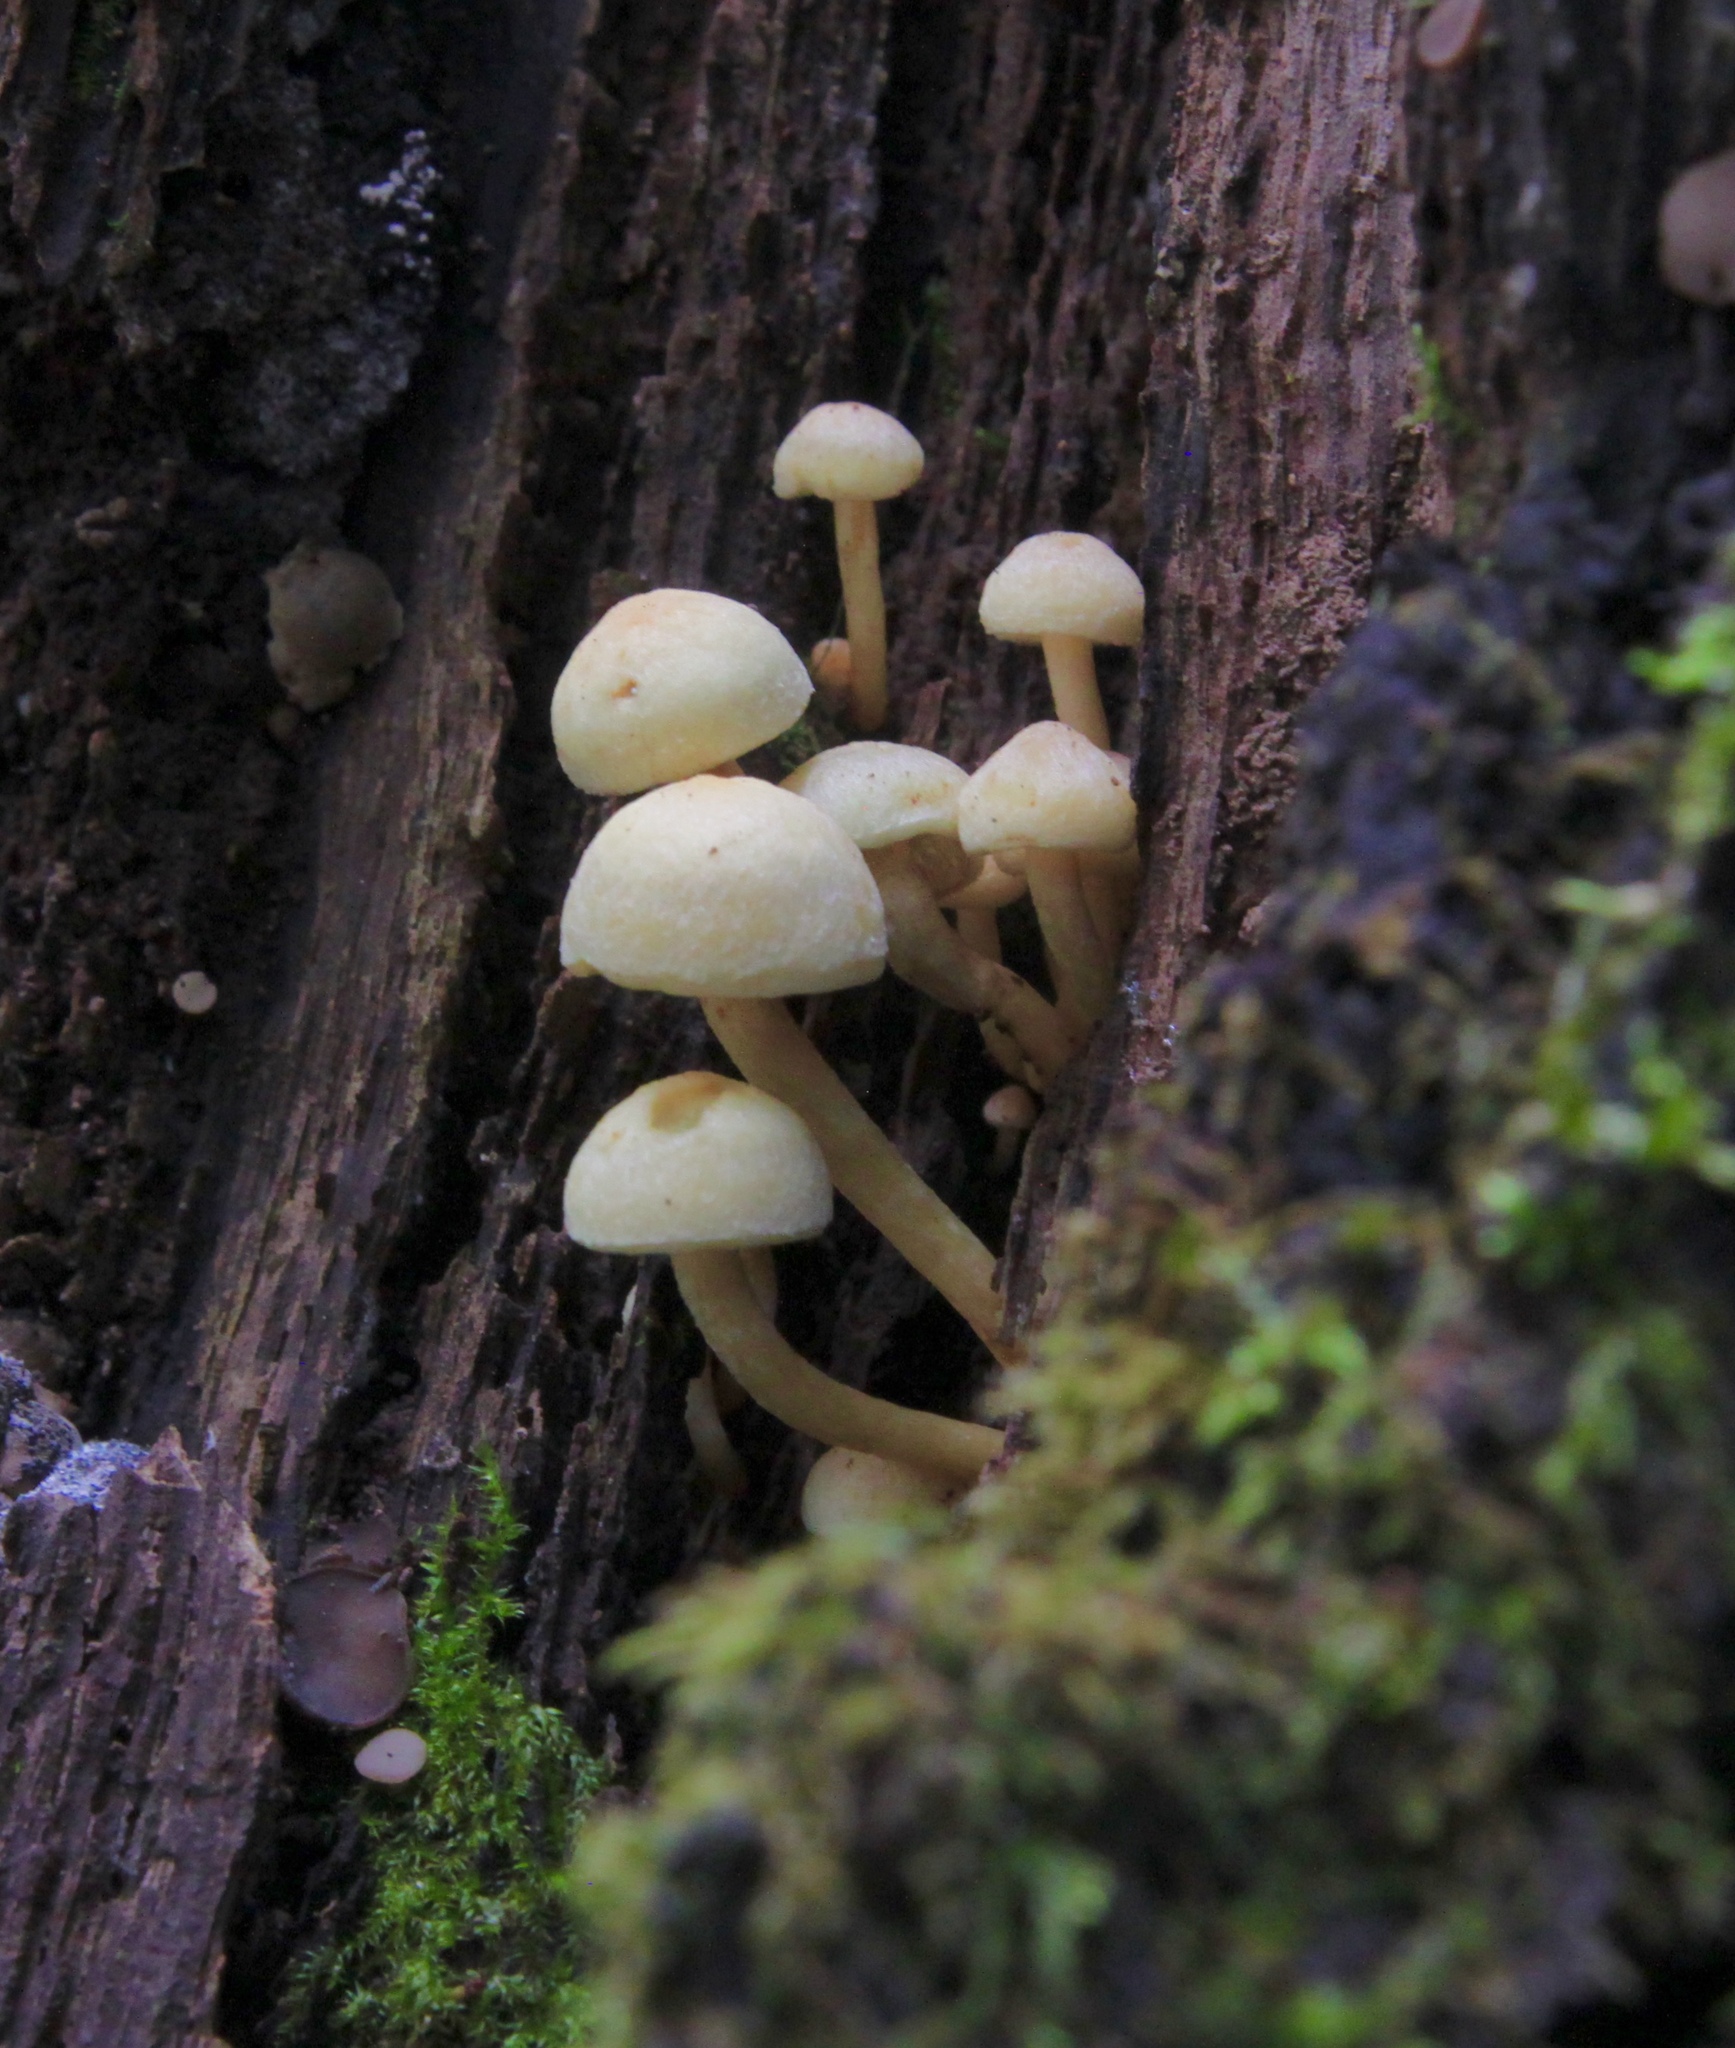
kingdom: Fungi
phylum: Basidiomycota
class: Agaricomycetes
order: Agaricales
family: Strophariaceae
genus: Hypholoma
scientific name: Hypholoma fasciculare
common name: Sulphur tuft
